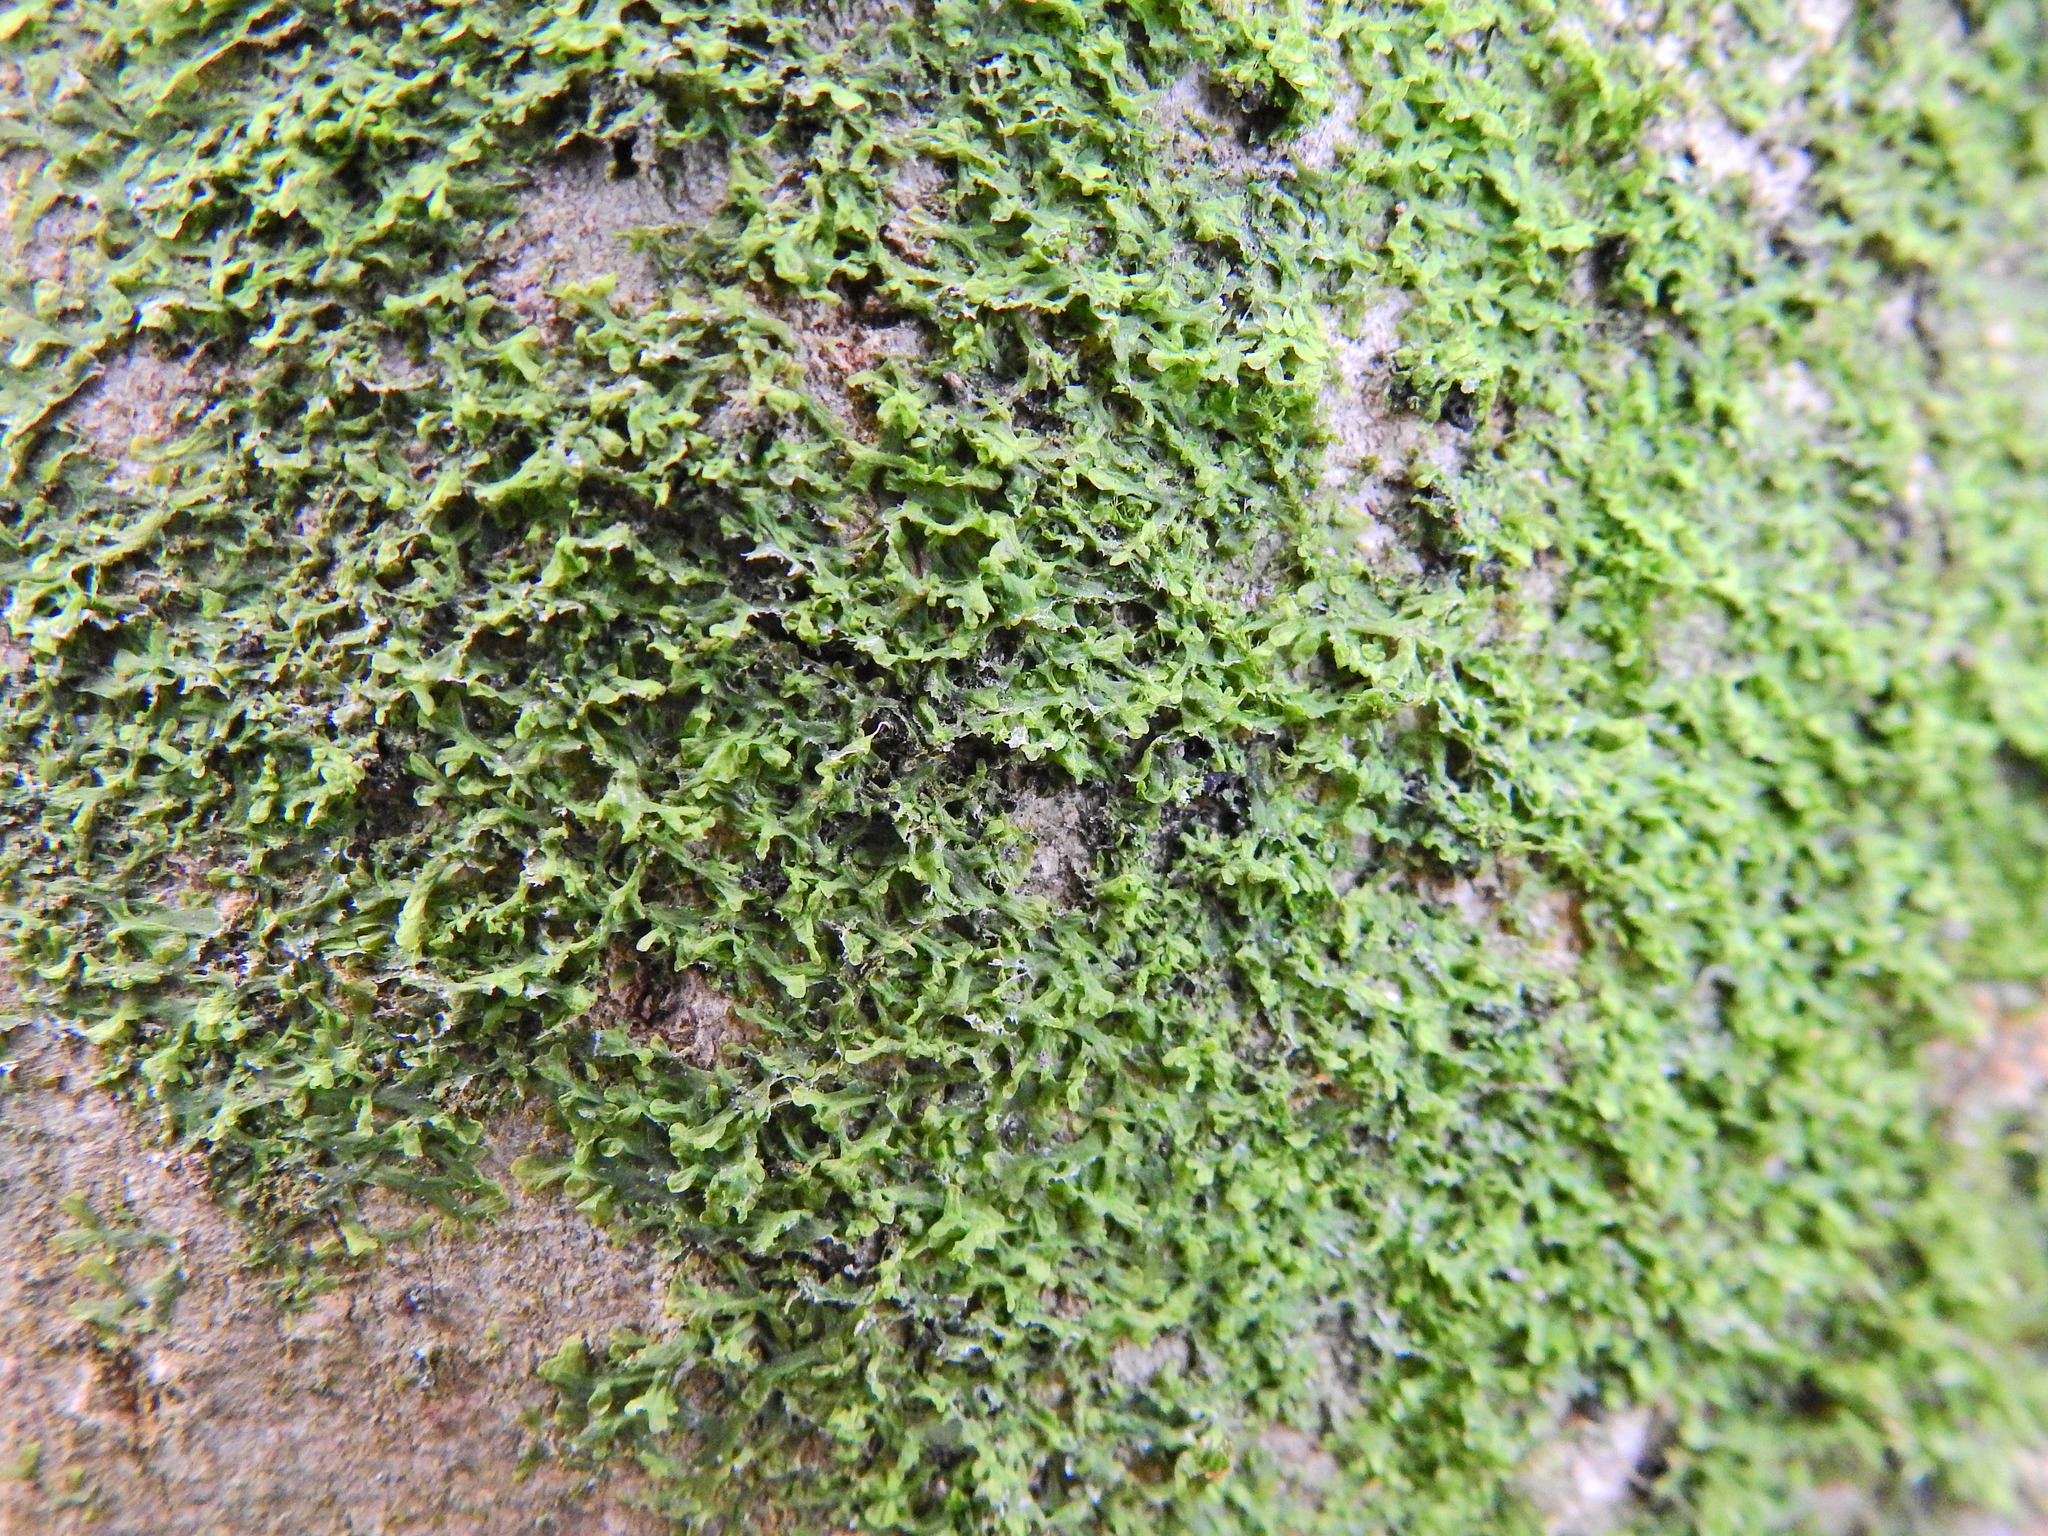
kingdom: Plantae
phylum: Marchantiophyta
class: Jungermanniopsida
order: Metzgeriales
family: Metzgeriaceae
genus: Metzgeria
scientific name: Metzgeria furcata
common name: Forked veilwort
